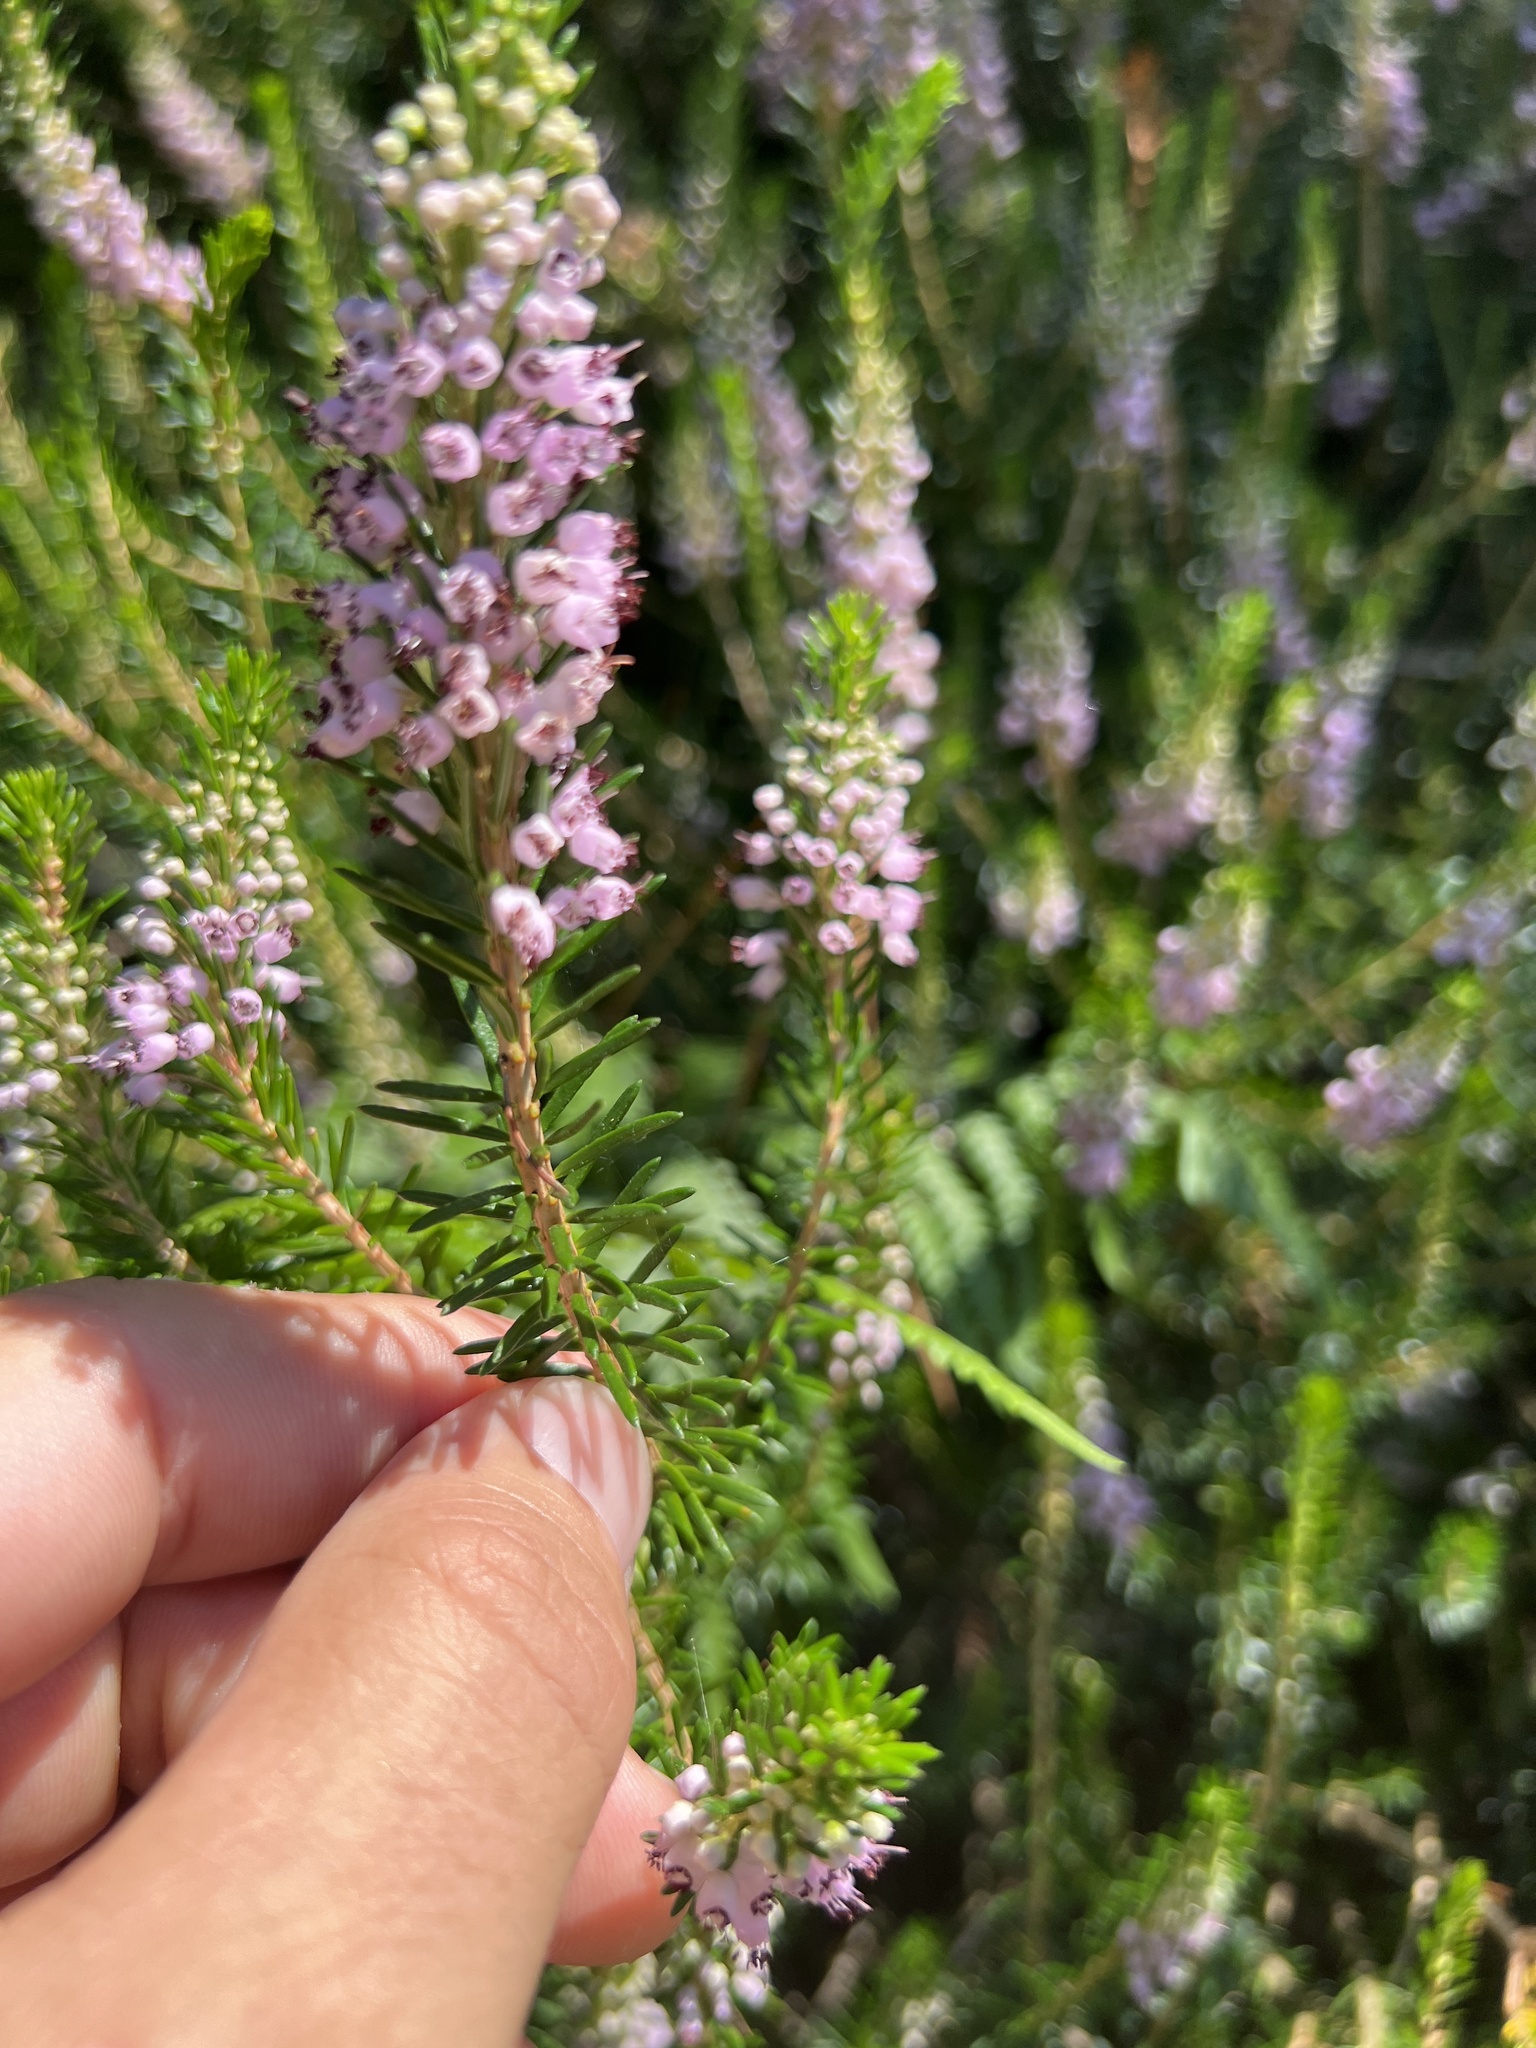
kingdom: Plantae
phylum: Tracheophyta
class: Magnoliopsida
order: Ericales
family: Ericaceae
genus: Erica
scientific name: Erica vagans
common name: Cornish heath
